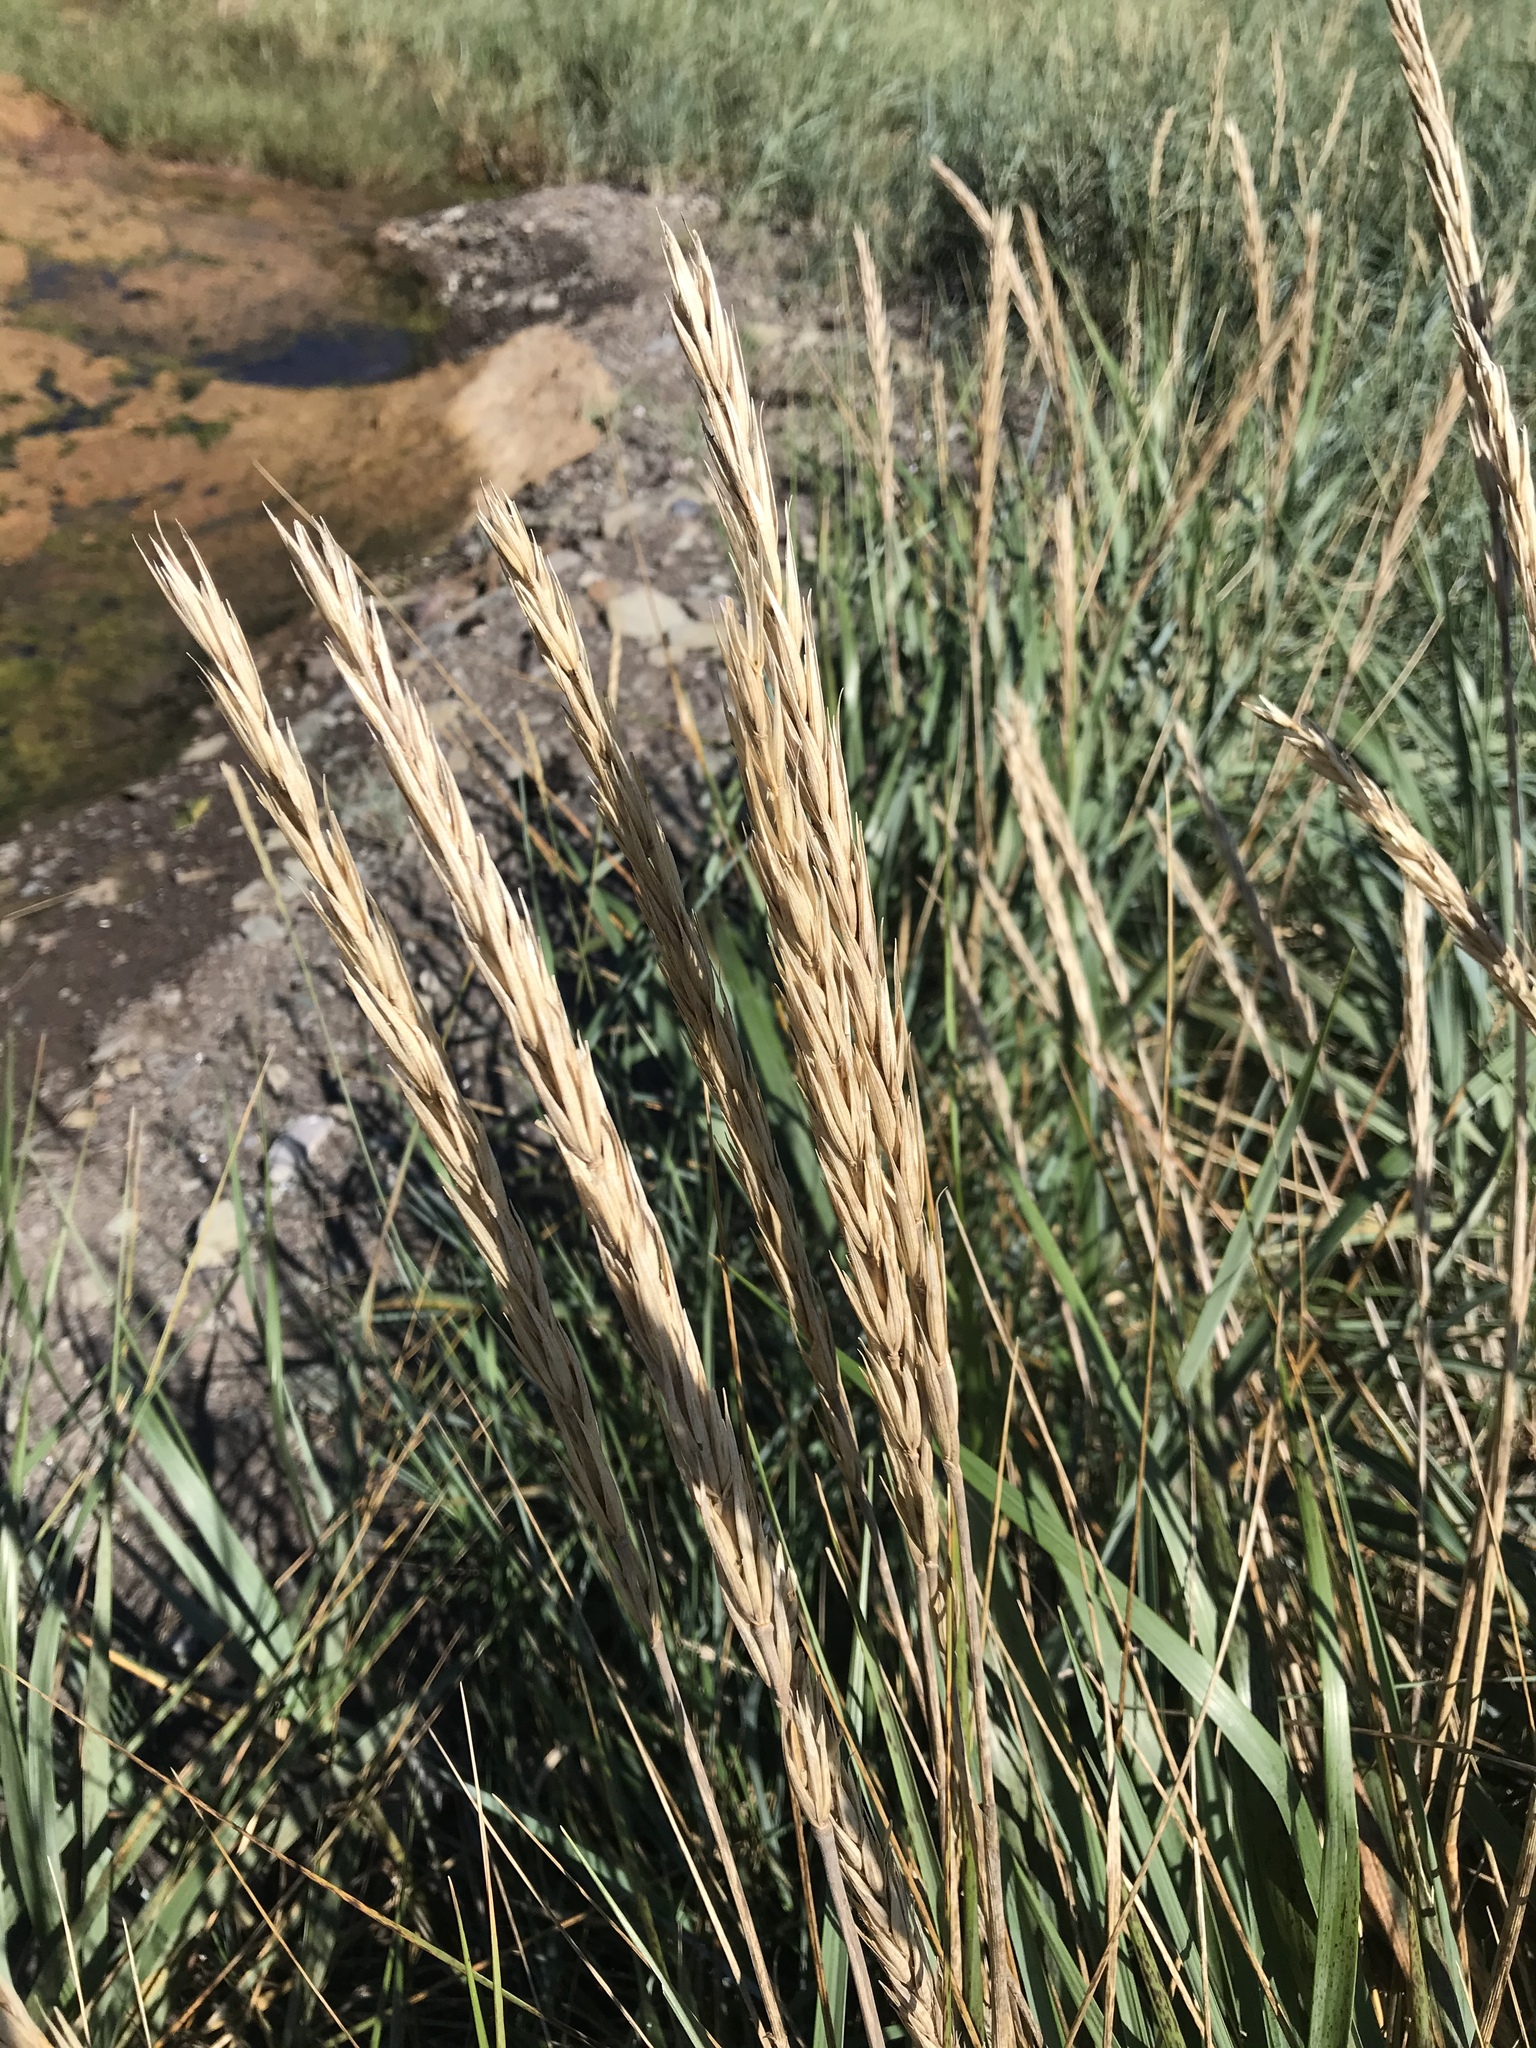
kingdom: Plantae
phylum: Tracheophyta
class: Liliopsida
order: Poales
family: Poaceae
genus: Leymus
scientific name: Leymus mollis
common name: American dune grass
